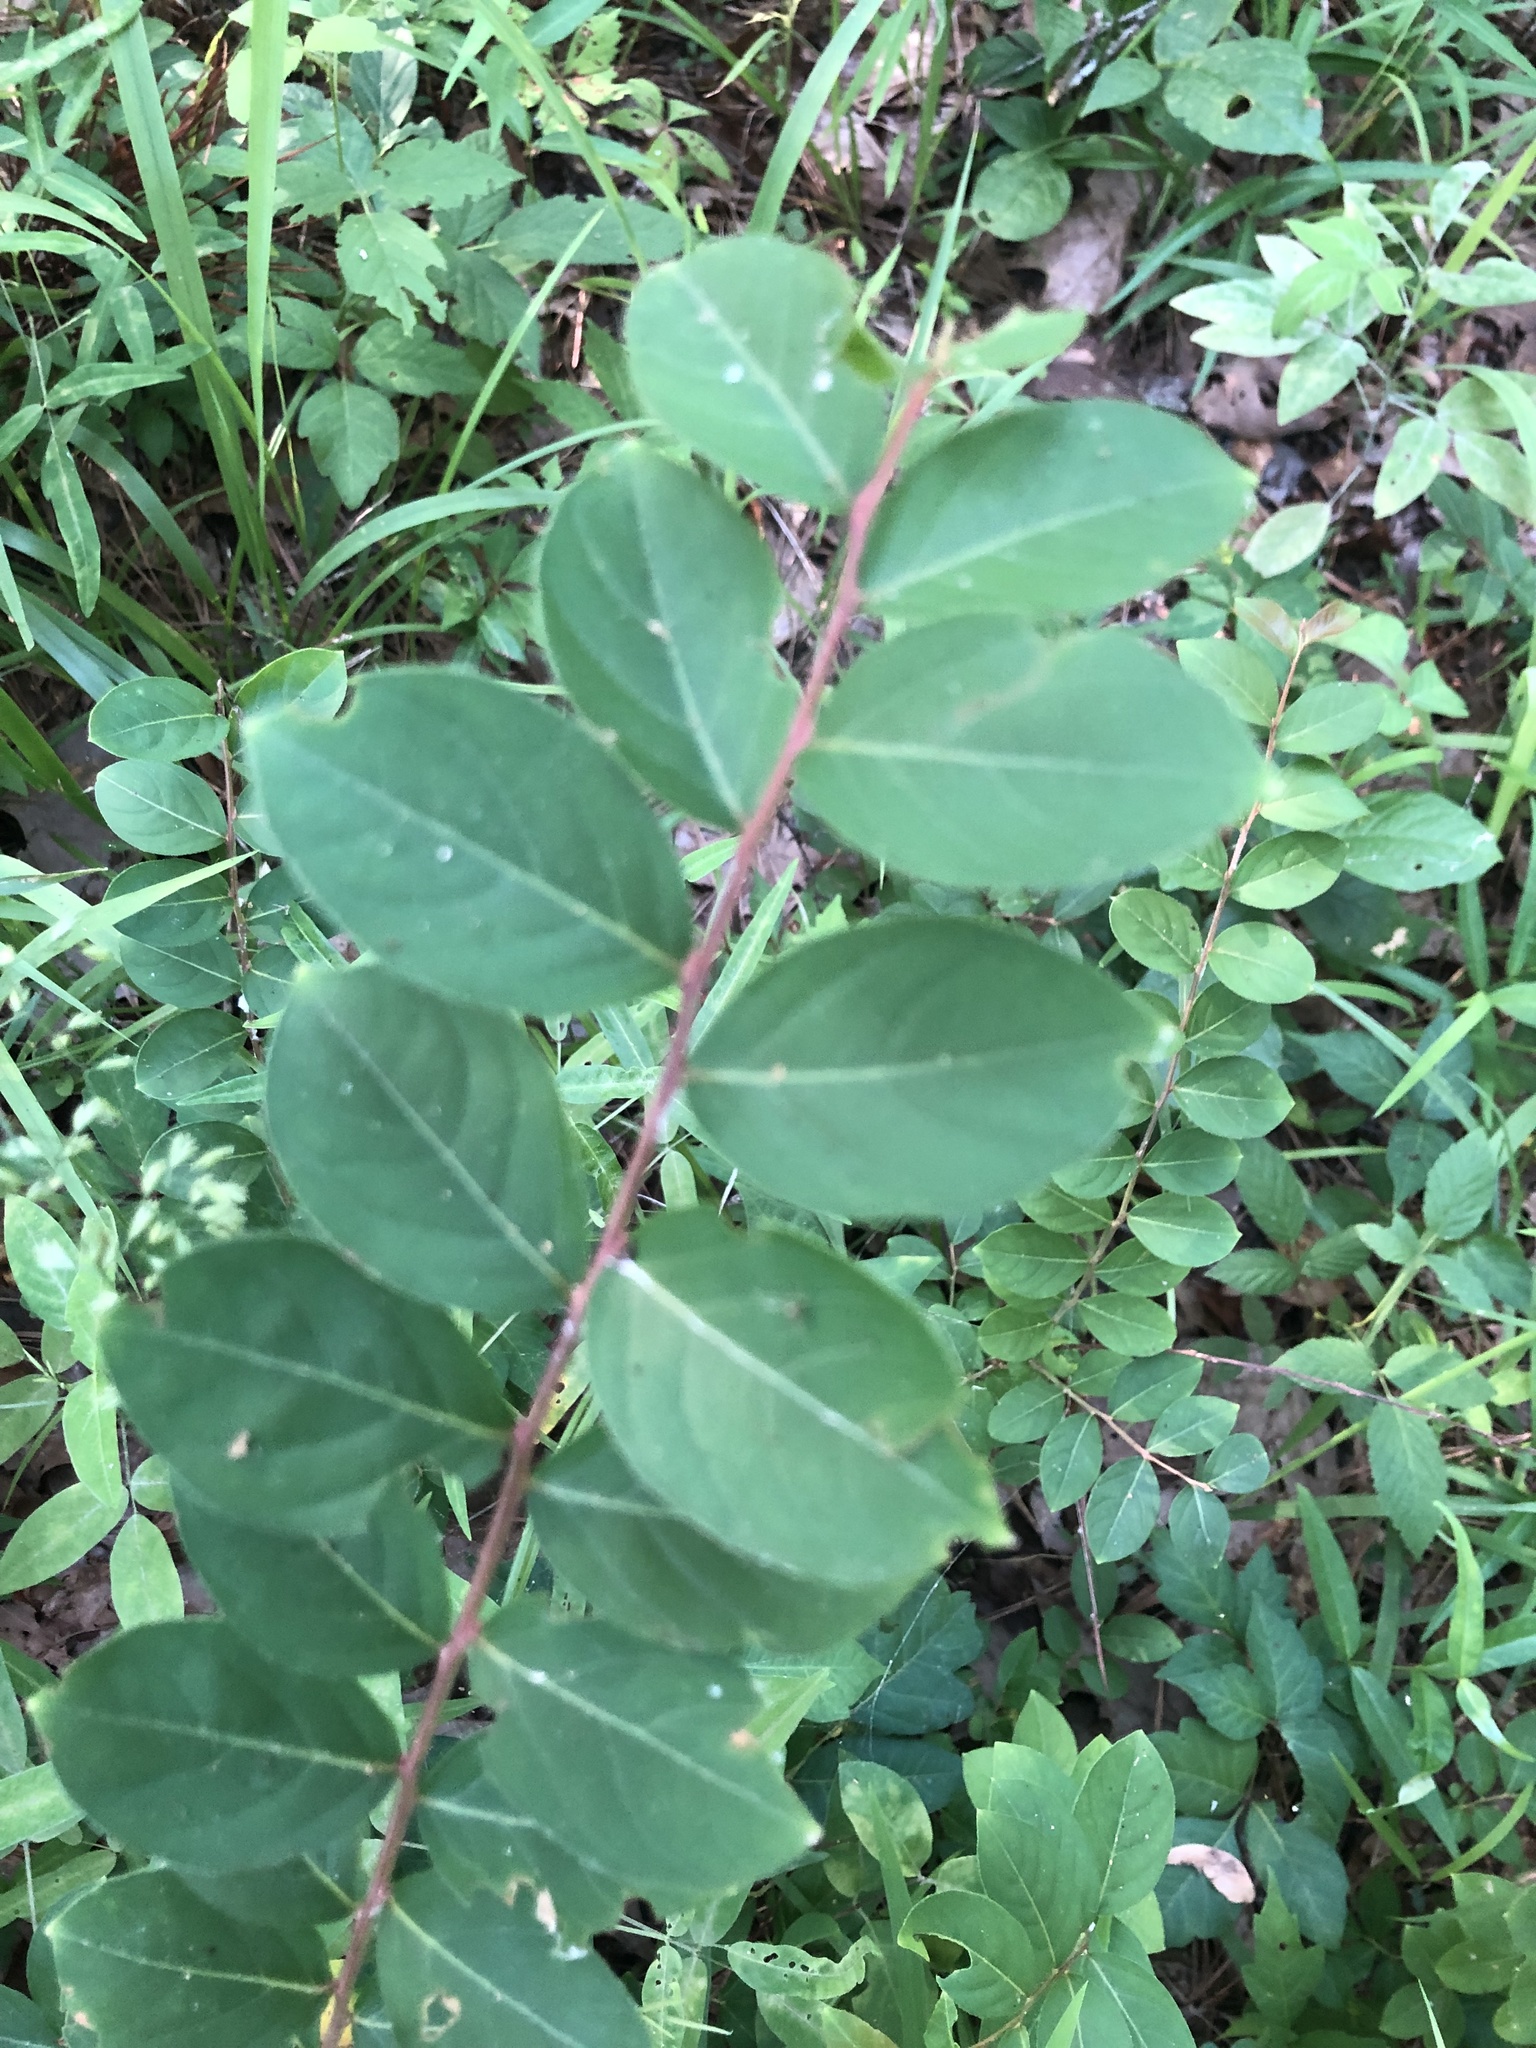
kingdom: Plantae
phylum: Tracheophyta
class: Magnoliopsida
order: Myrtales
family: Lythraceae
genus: Lagerstroemia
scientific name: Lagerstroemia indica
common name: Crape-myrtle
